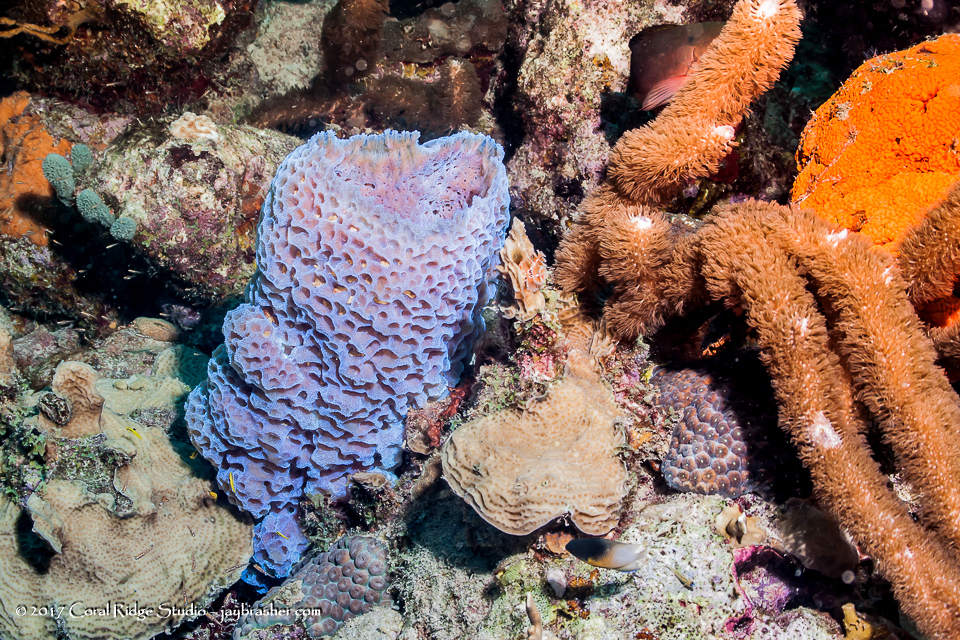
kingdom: Animalia
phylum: Porifera
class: Demospongiae
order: Haplosclerida
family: Callyspongiidae
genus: Callyspongia
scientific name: Callyspongia plicifera
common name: Azure vase sponge
